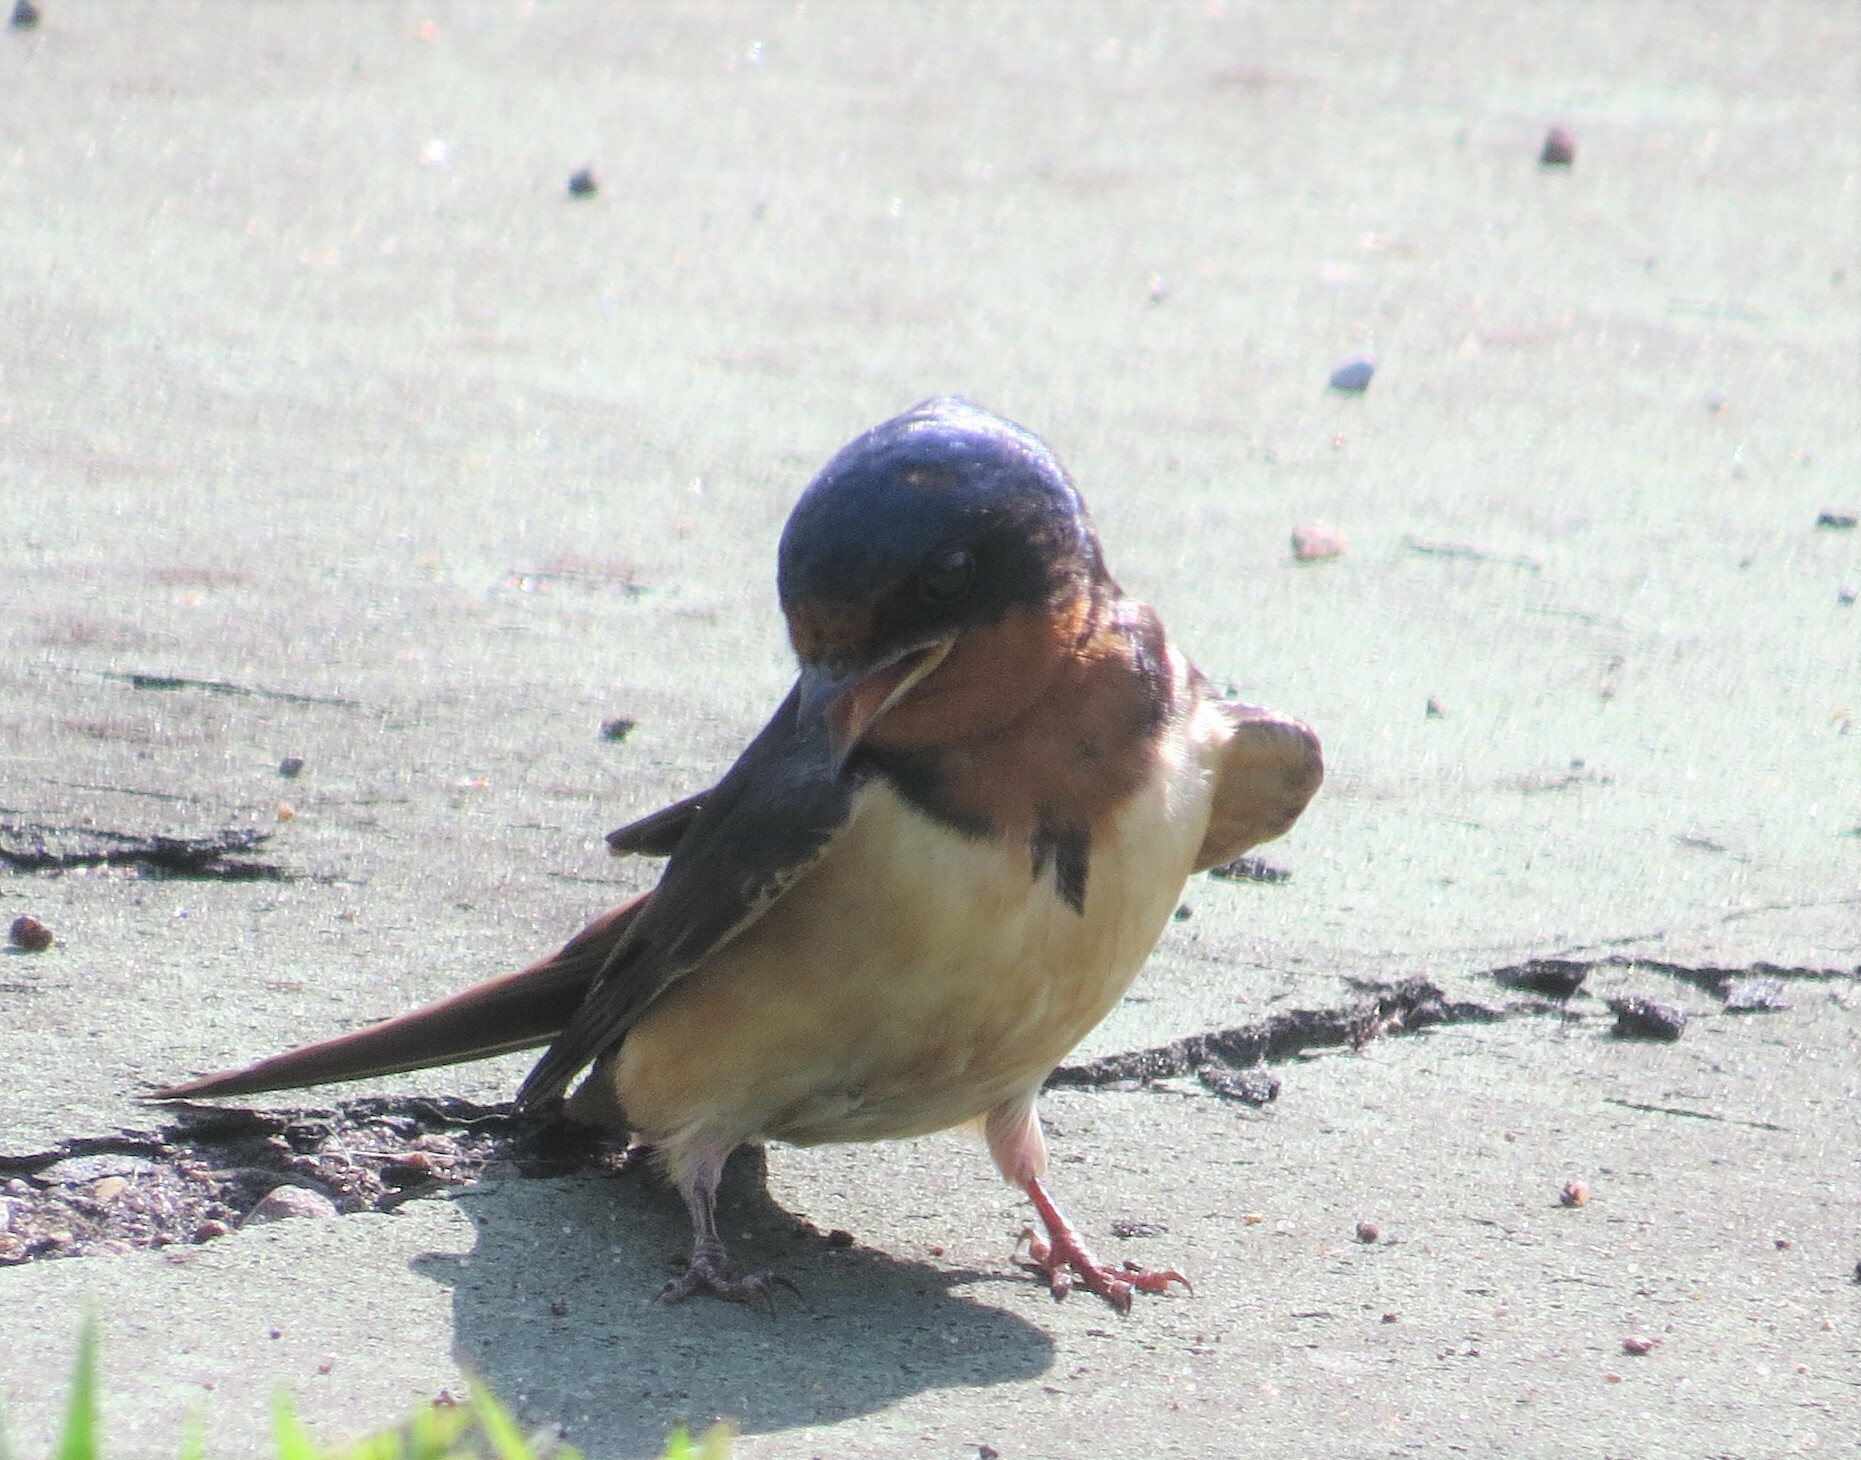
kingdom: Animalia
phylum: Chordata
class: Aves
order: Passeriformes
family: Hirundinidae
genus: Hirundo
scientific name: Hirundo rustica
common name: Barn swallow
